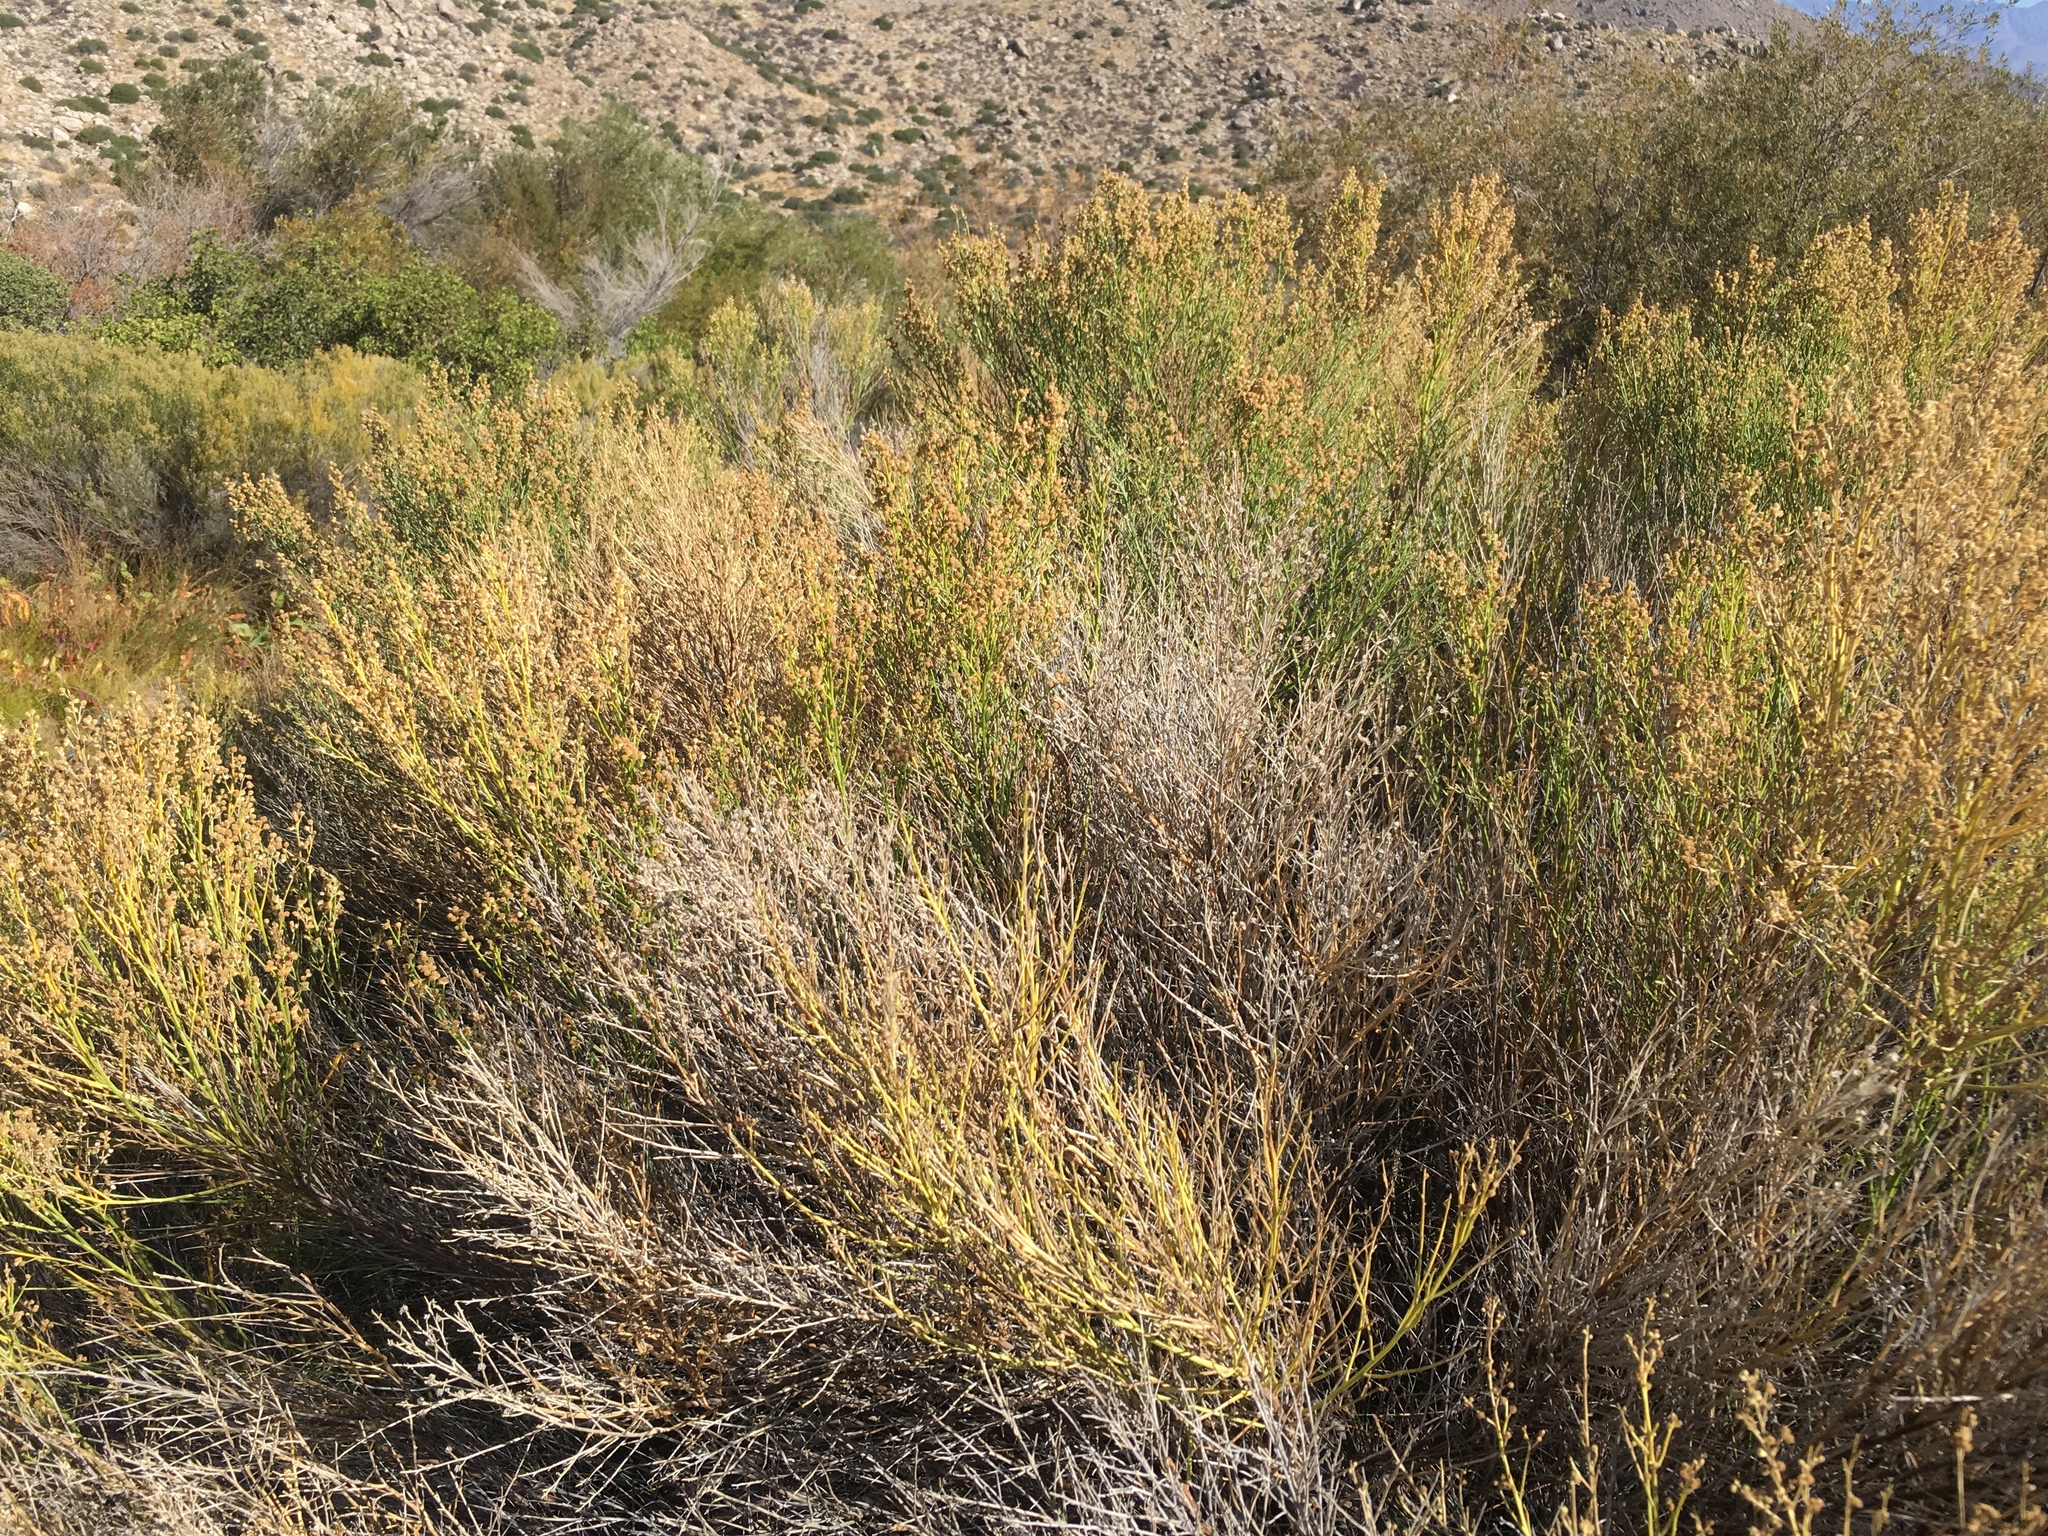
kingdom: Plantae
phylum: Tracheophyta
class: Magnoliopsida
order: Asterales
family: Asteraceae
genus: Baccharis
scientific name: Baccharis sergiloides
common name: Desert baccharis
